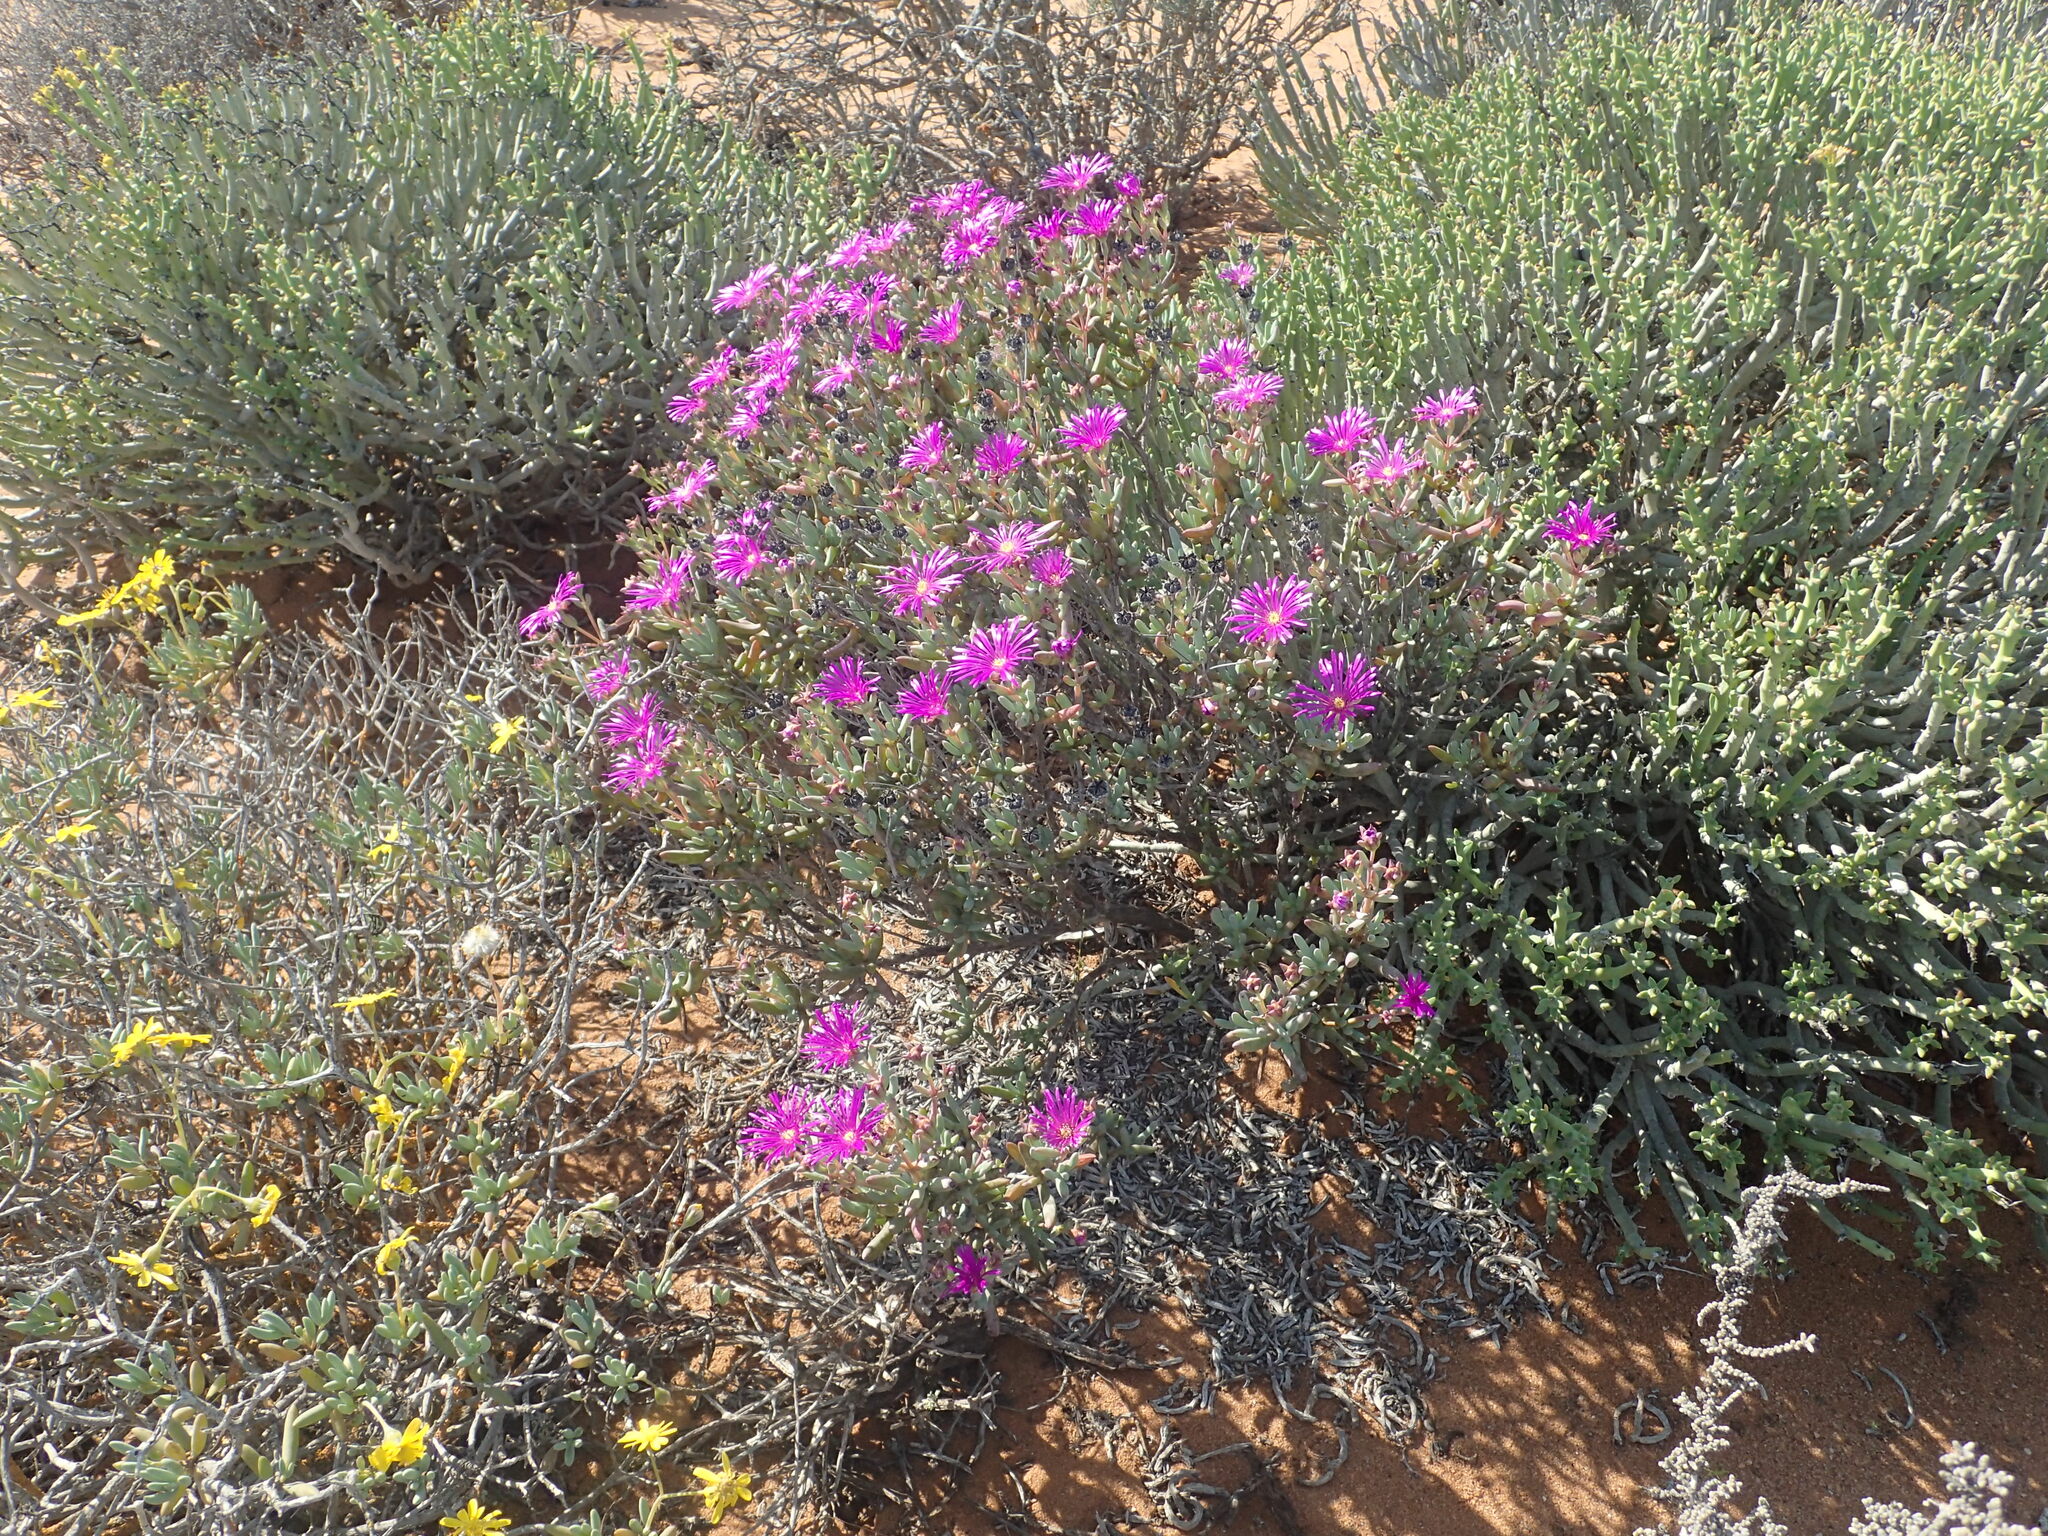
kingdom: Plantae
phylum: Tracheophyta
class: Magnoliopsida
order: Caryophyllales
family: Aizoaceae
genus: Lampranthus
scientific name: Lampranthus otzenianus
